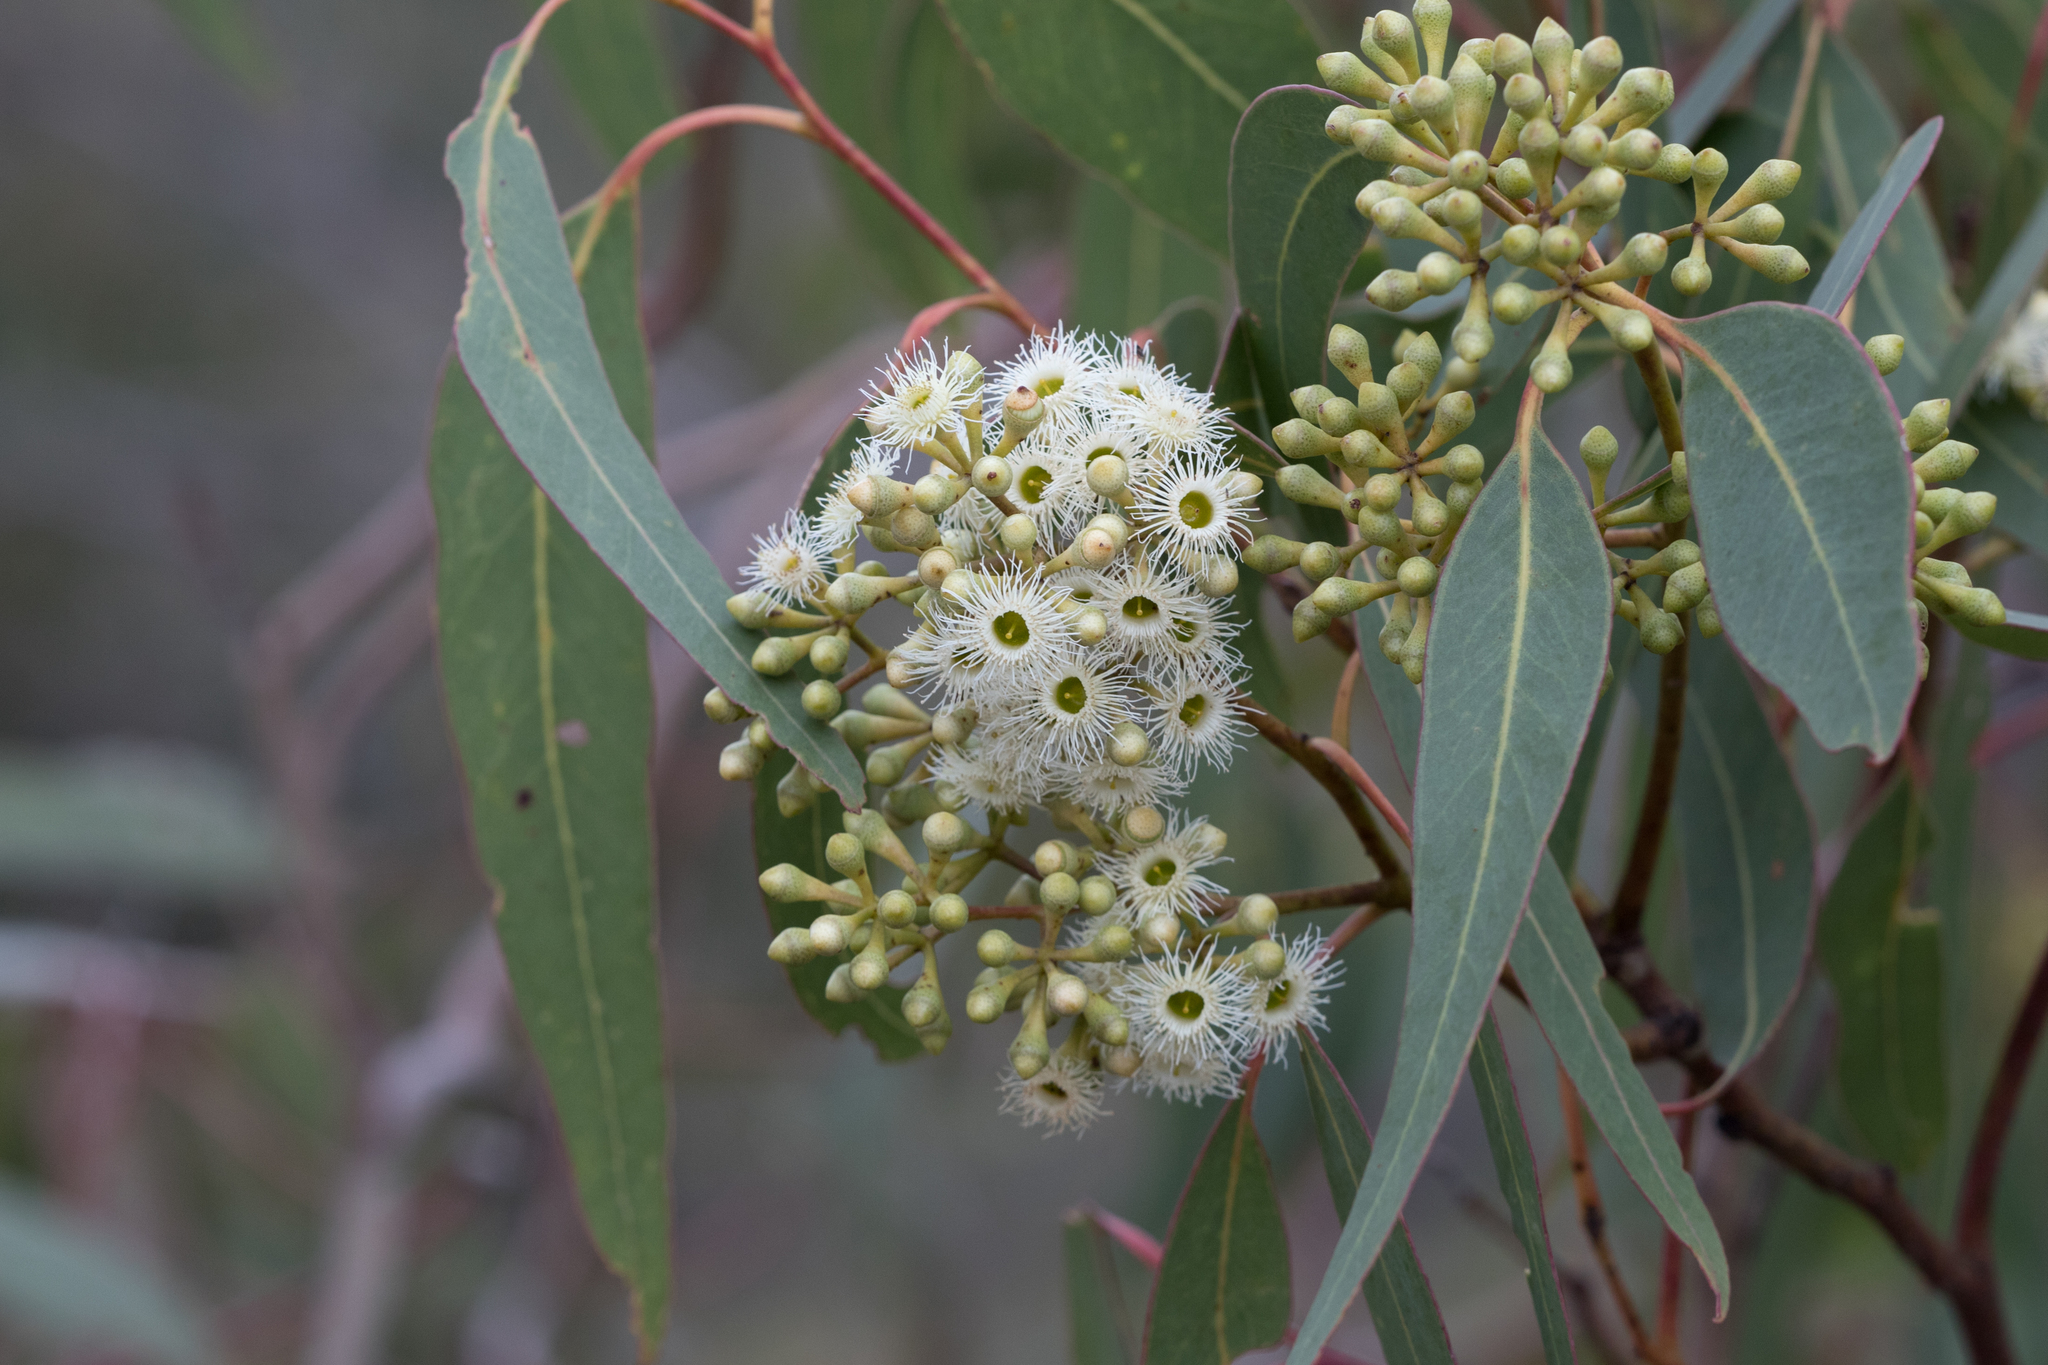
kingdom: Plantae
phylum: Tracheophyta
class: Magnoliopsida
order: Myrtales
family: Myrtaceae
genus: Eucalyptus
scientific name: Eucalyptus fasciculosa
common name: Hill gum
